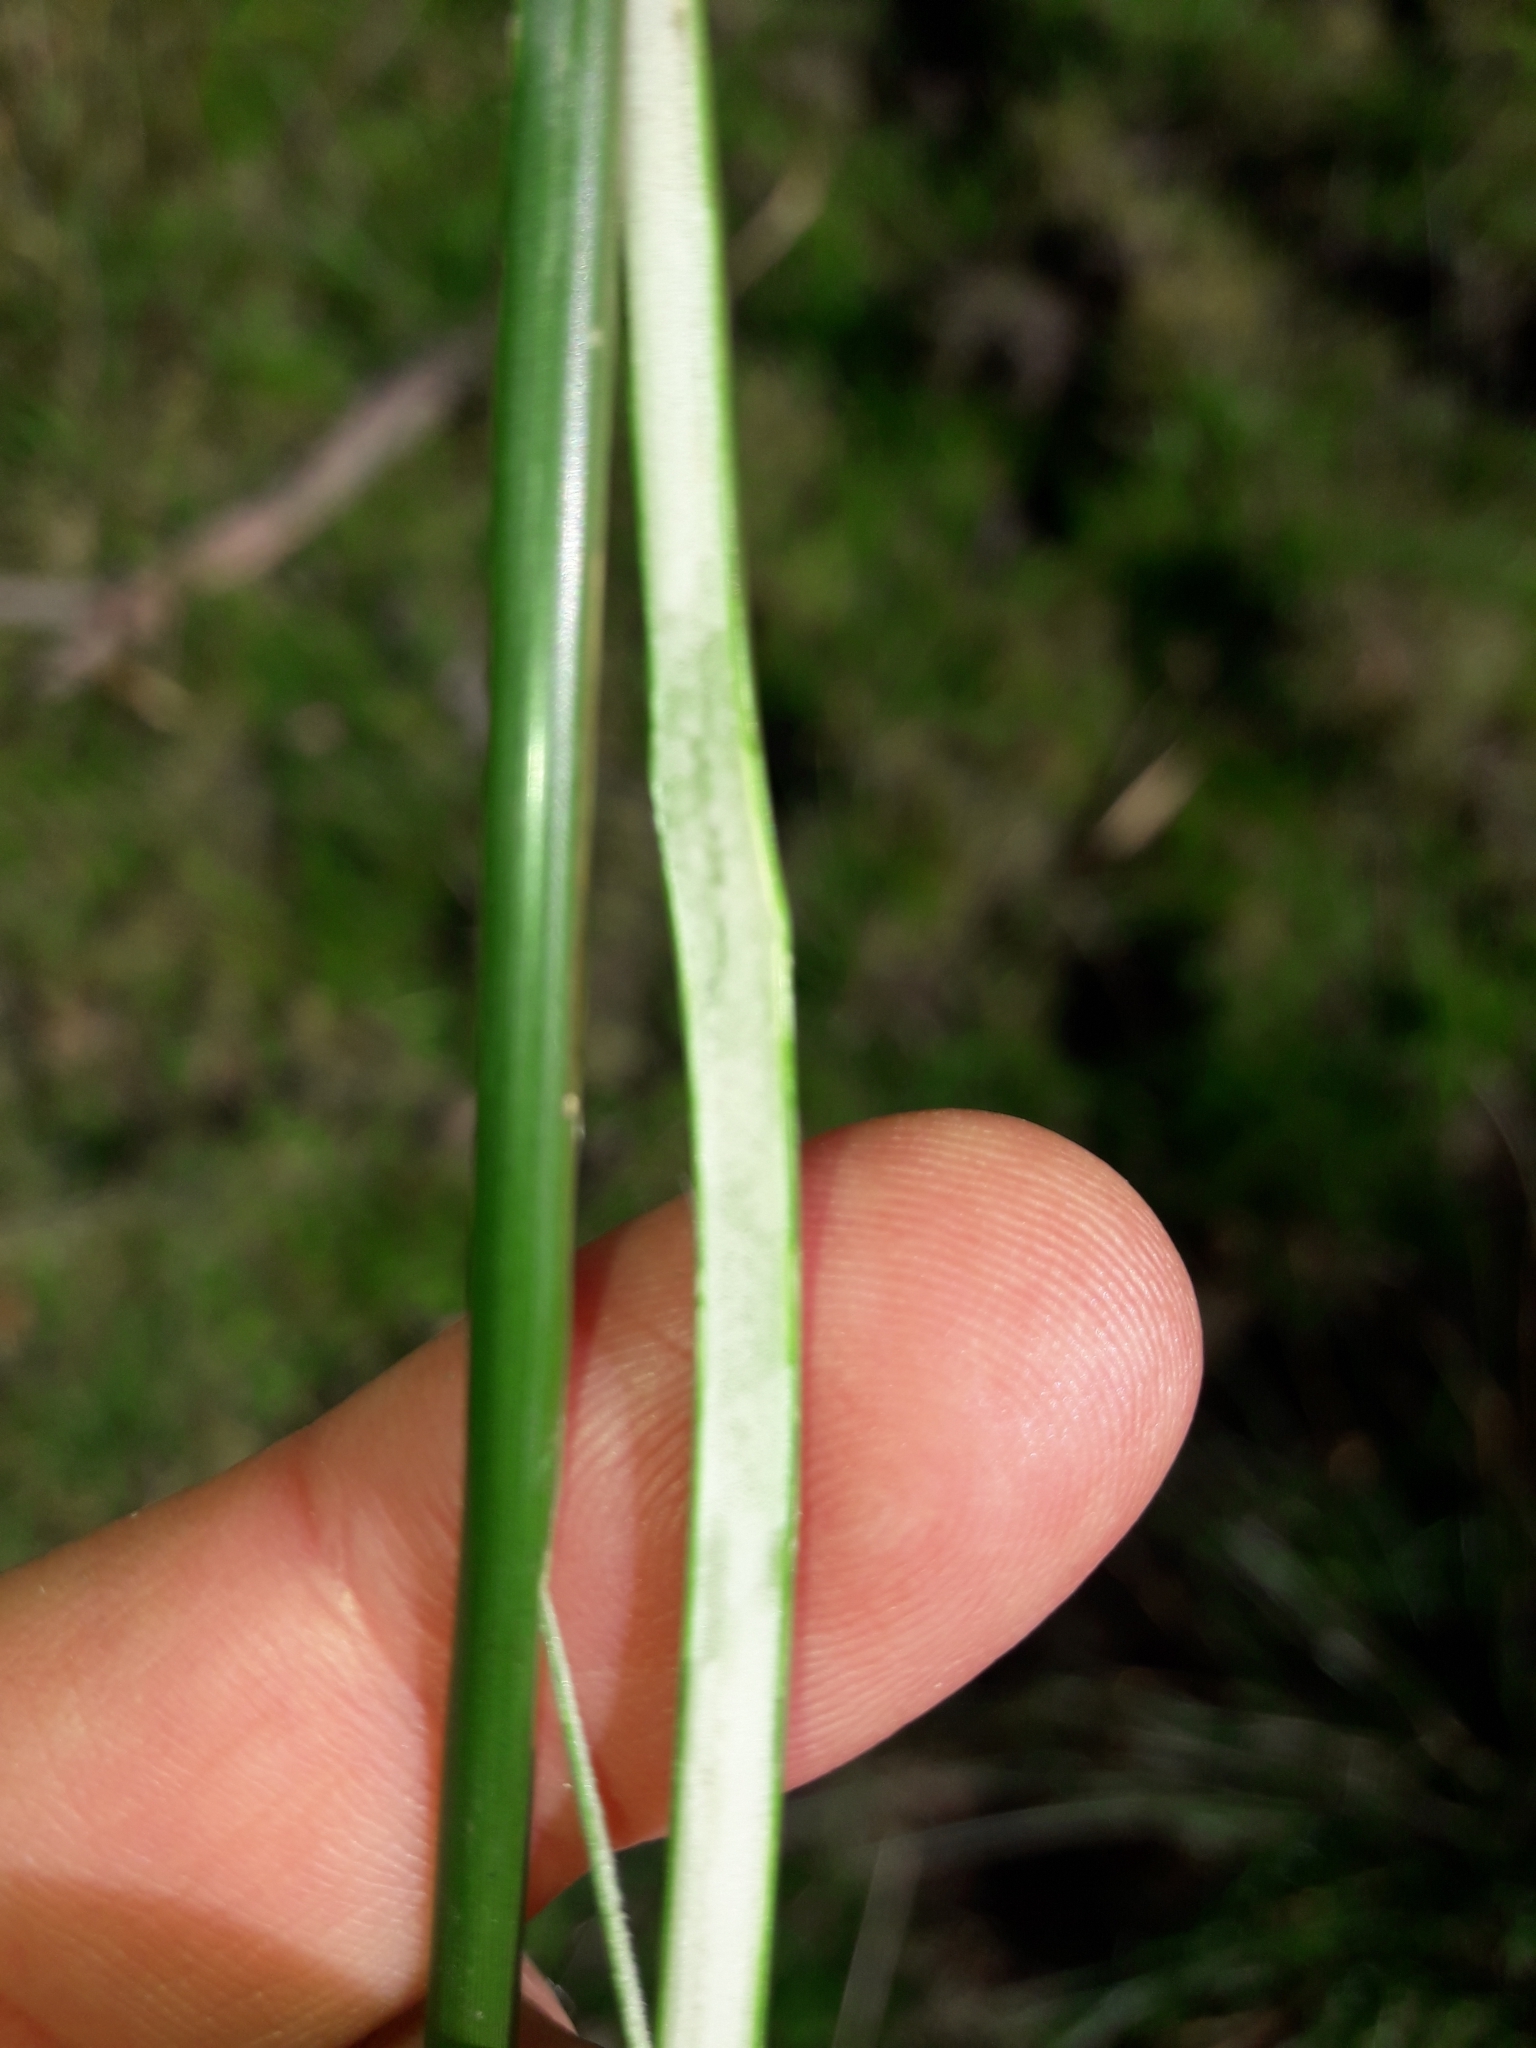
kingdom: Plantae
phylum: Tracheophyta
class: Liliopsida
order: Poales
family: Juncaceae
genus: Juncus
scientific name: Juncus effusus
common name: Soft rush
